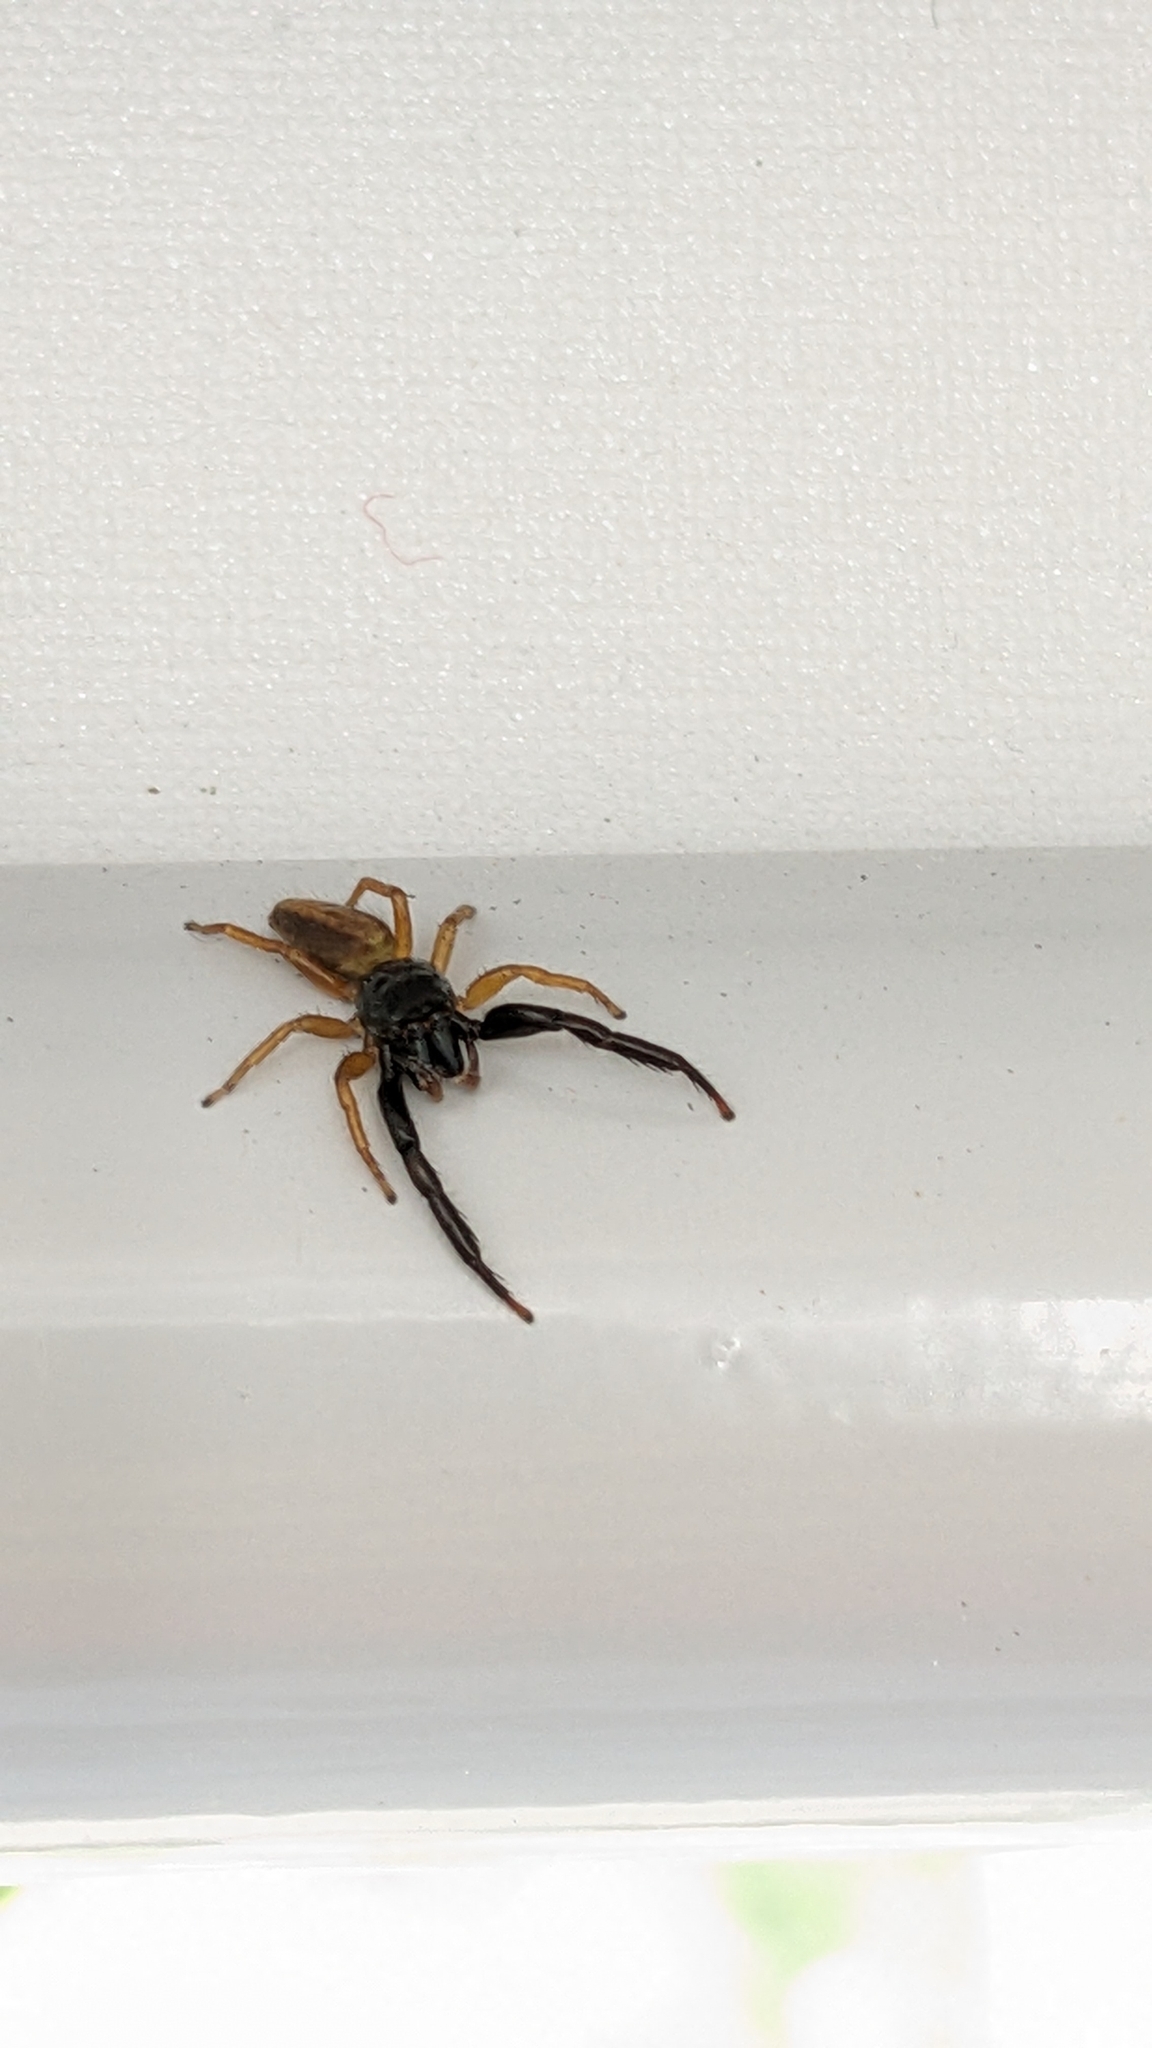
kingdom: Animalia
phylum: Arthropoda
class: Arachnida
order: Araneae
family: Salticidae
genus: Trite
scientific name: Trite planiceps
